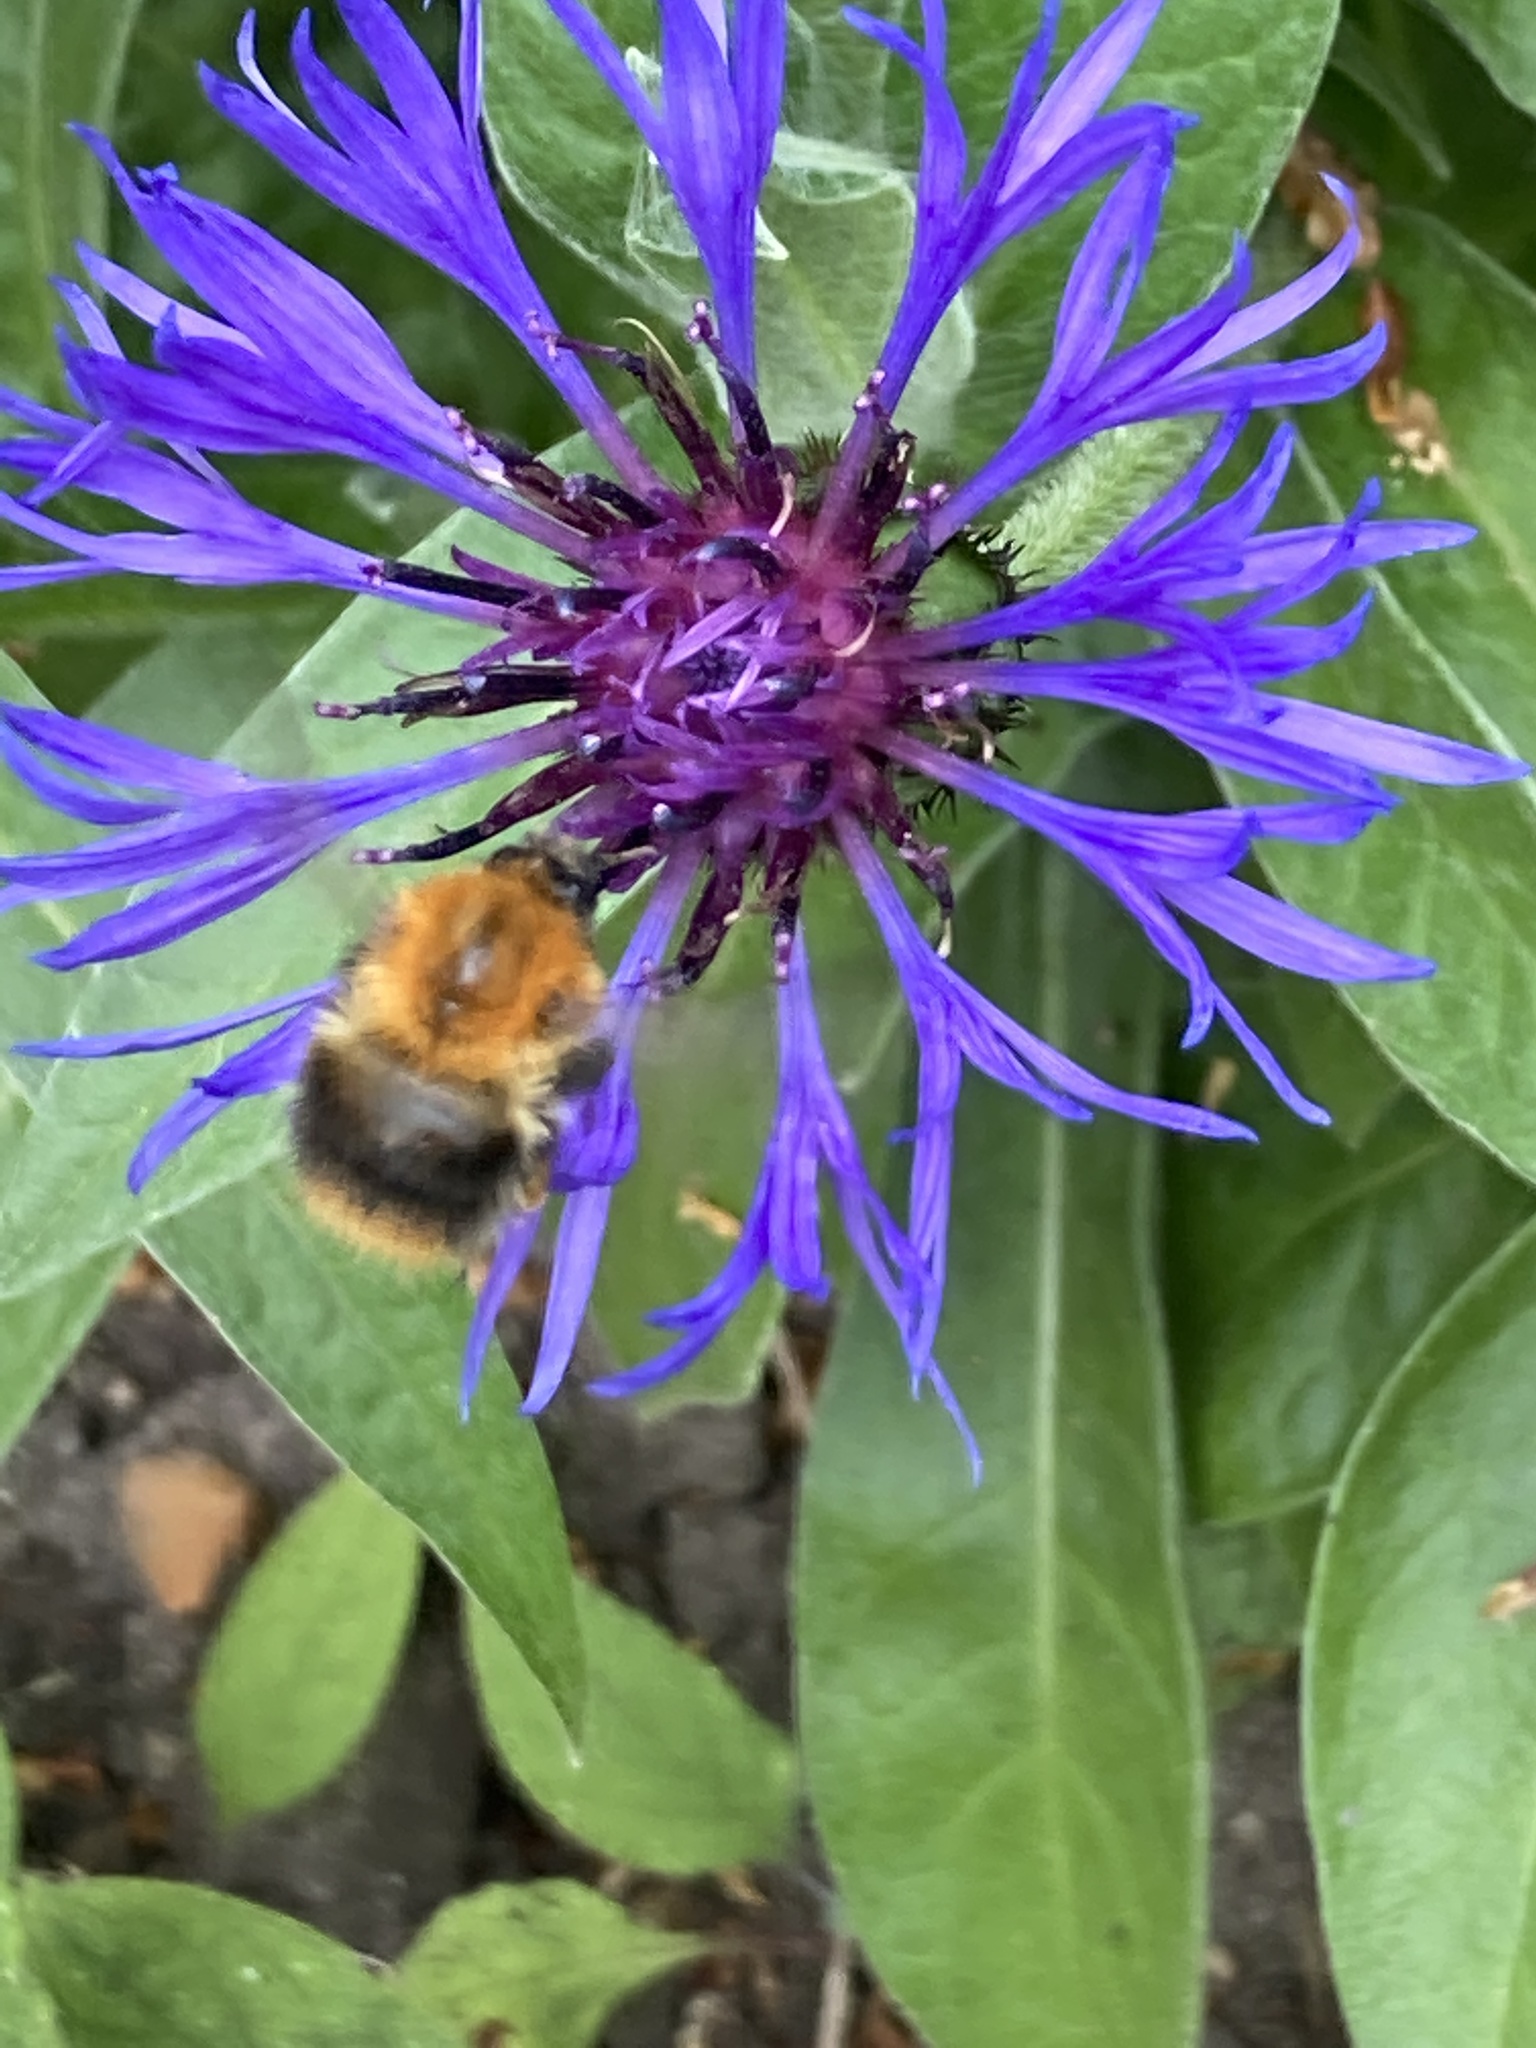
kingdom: Animalia
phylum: Arthropoda
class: Insecta
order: Hymenoptera
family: Apidae
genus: Bombus
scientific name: Bombus pascuorum
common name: Common carder bee
